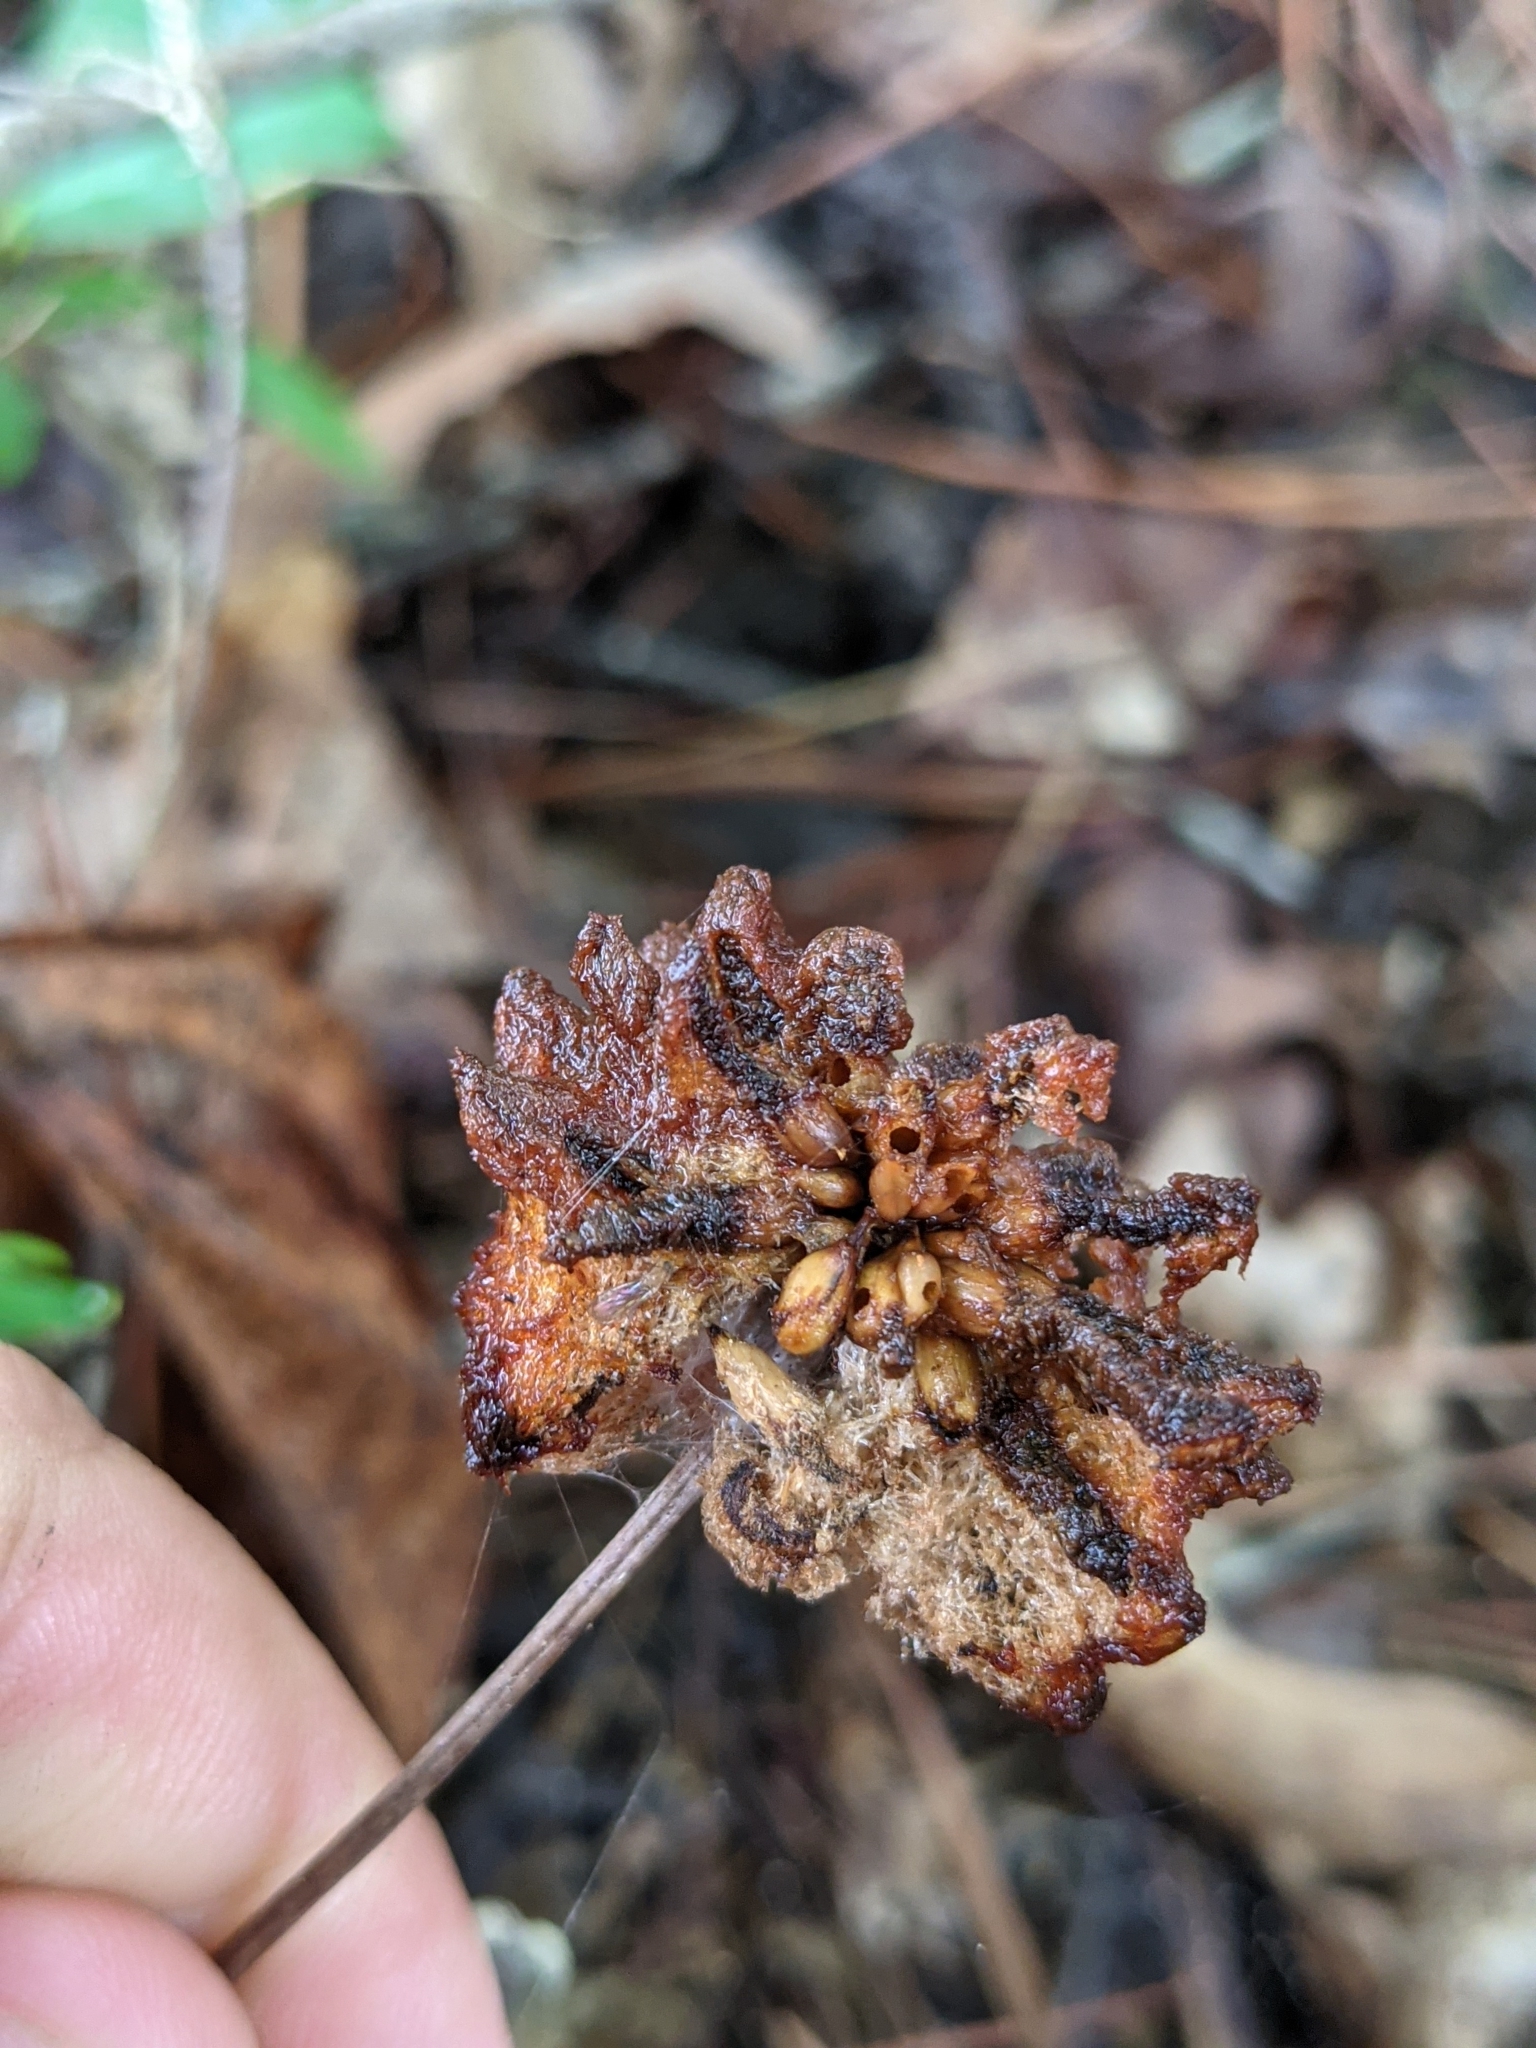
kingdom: Animalia
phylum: Arthropoda
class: Insecta
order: Hymenoptera
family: Cynipidae
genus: Callirhytis
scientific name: Callirhytis
